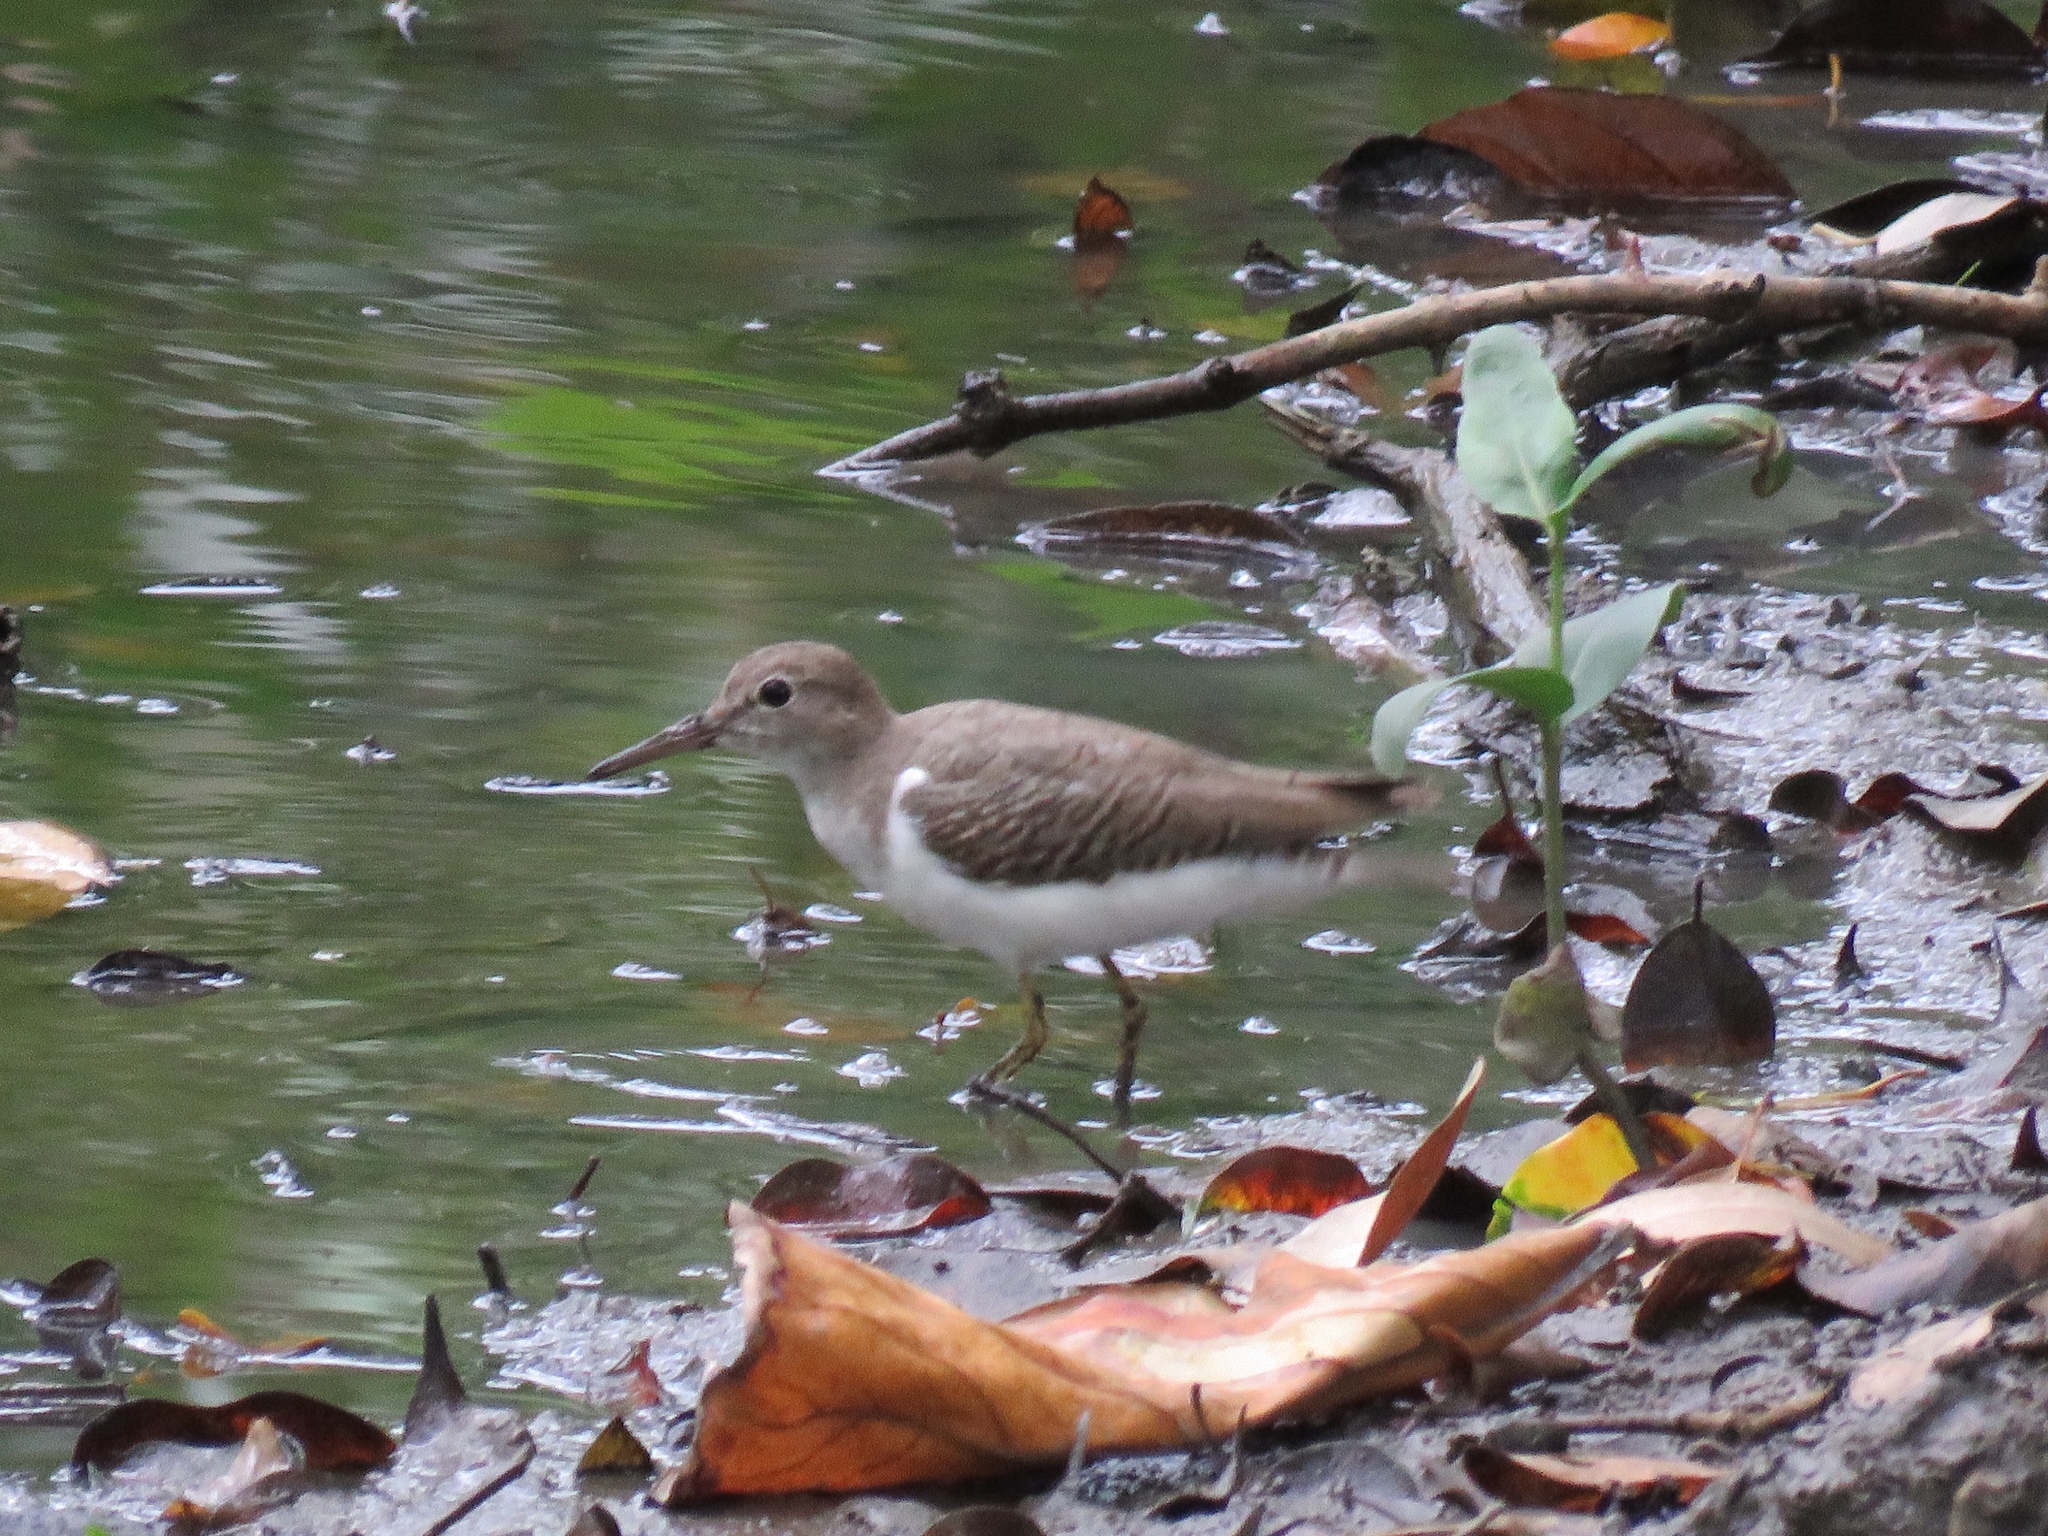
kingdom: Animalia
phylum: Chordata
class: Aves
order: Charadriiformes
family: Scolopacidae
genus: Actitis
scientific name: Actitis macularius
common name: Spotted sandpiper
